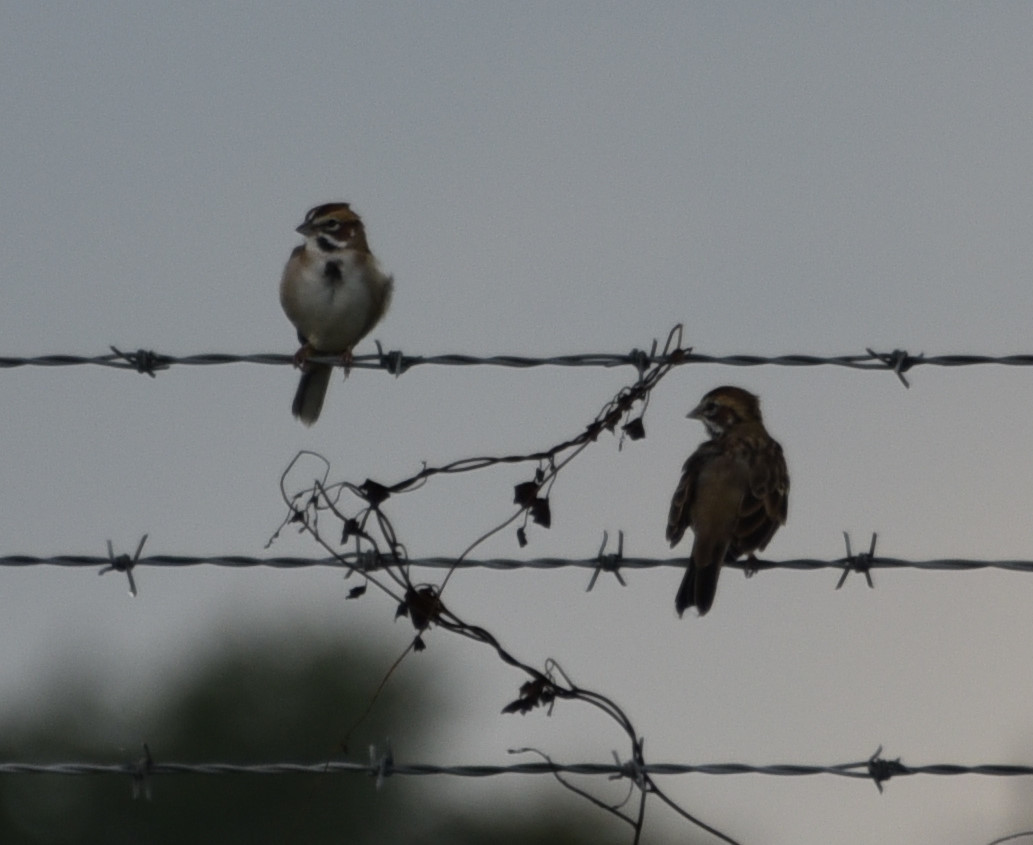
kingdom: Animalia
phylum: Chordata
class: Aves
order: Passeriformes
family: Passerellidae
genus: Chondestes
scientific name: Chondestes grammacus
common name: Lark sparrow
